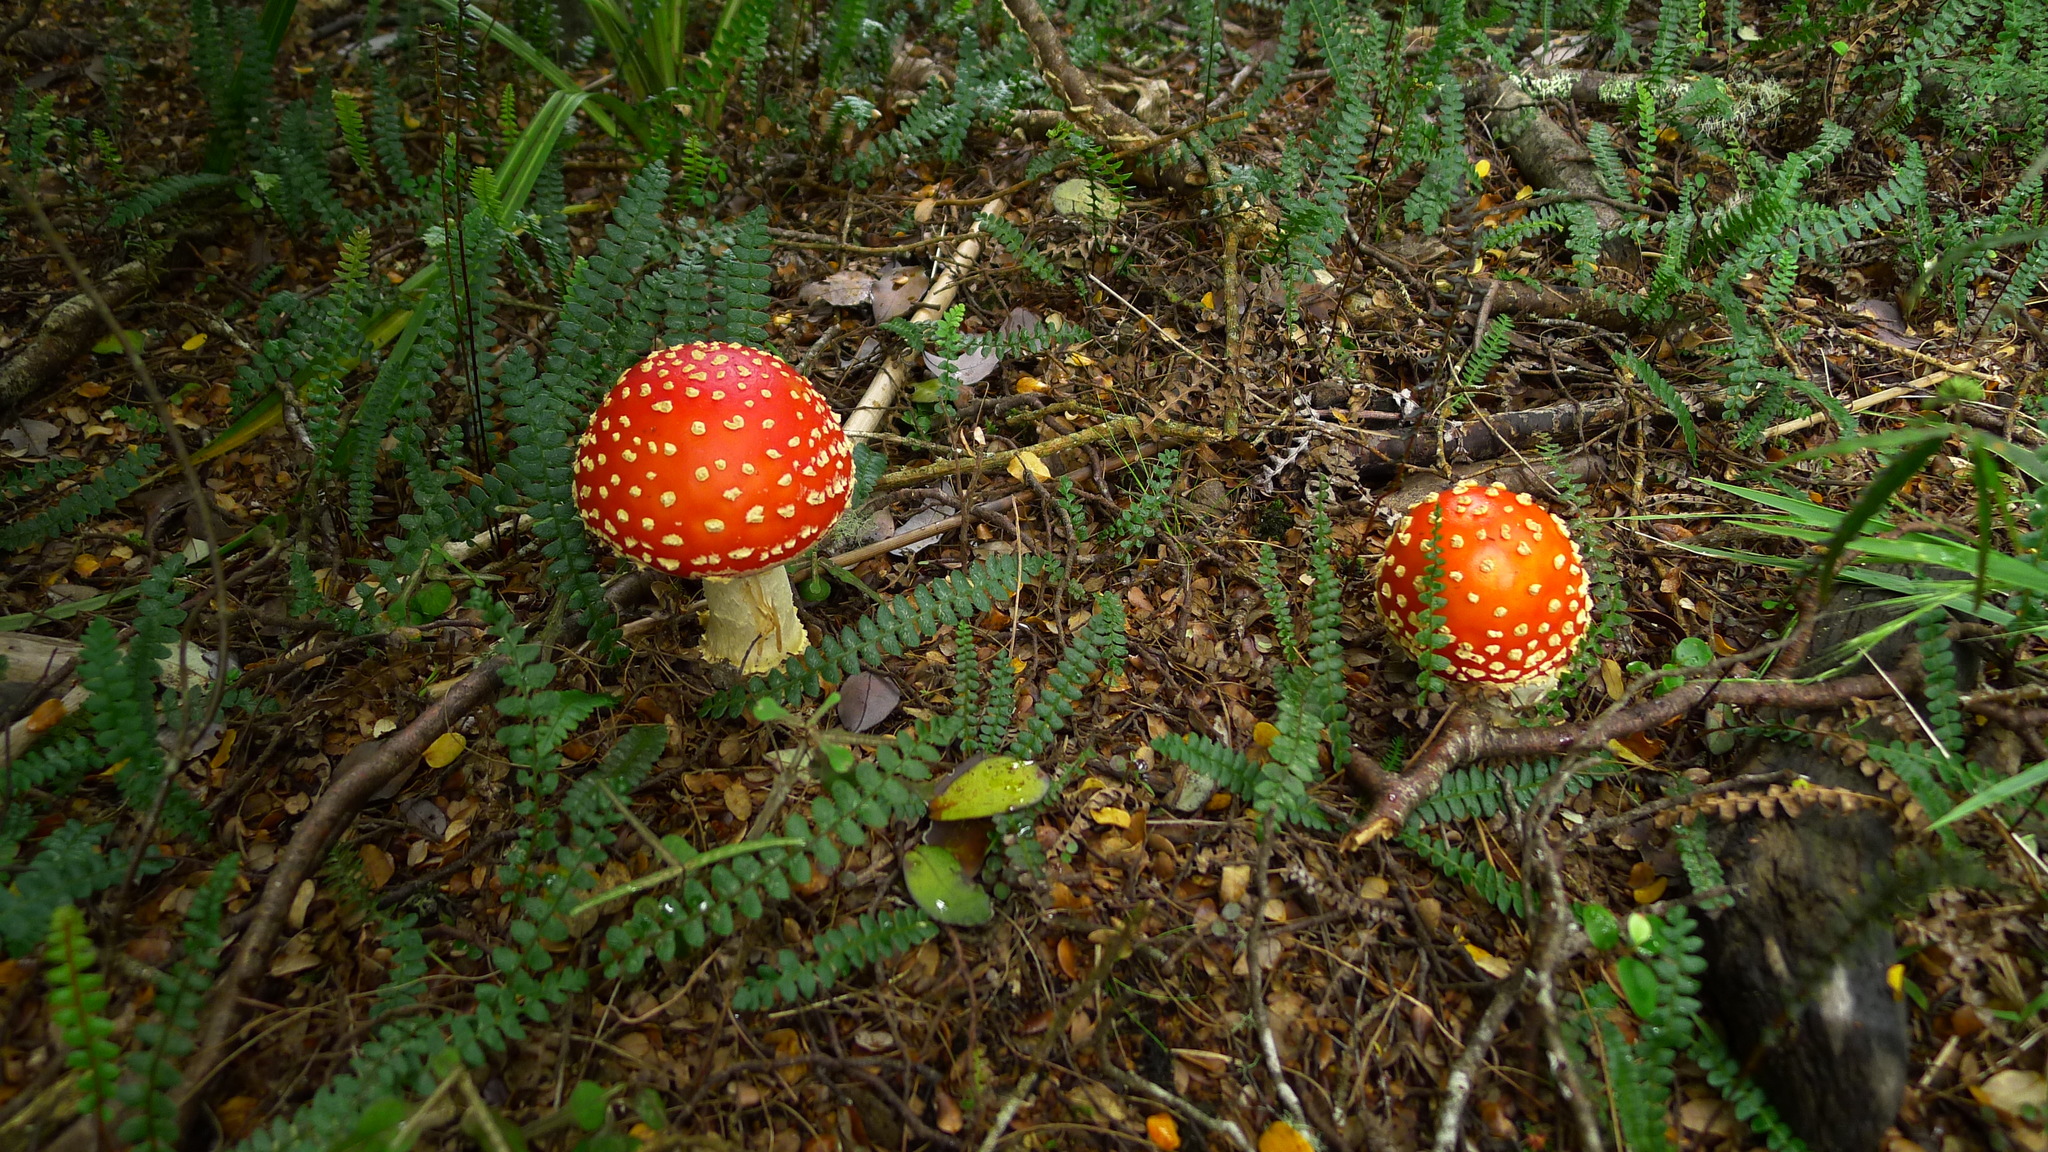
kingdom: Fungi
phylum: Basidiomycota
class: Agaricomycetes
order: Agaricales
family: Amanitaceae
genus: Amanita
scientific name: Amanita muscaria
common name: Fly agaric
